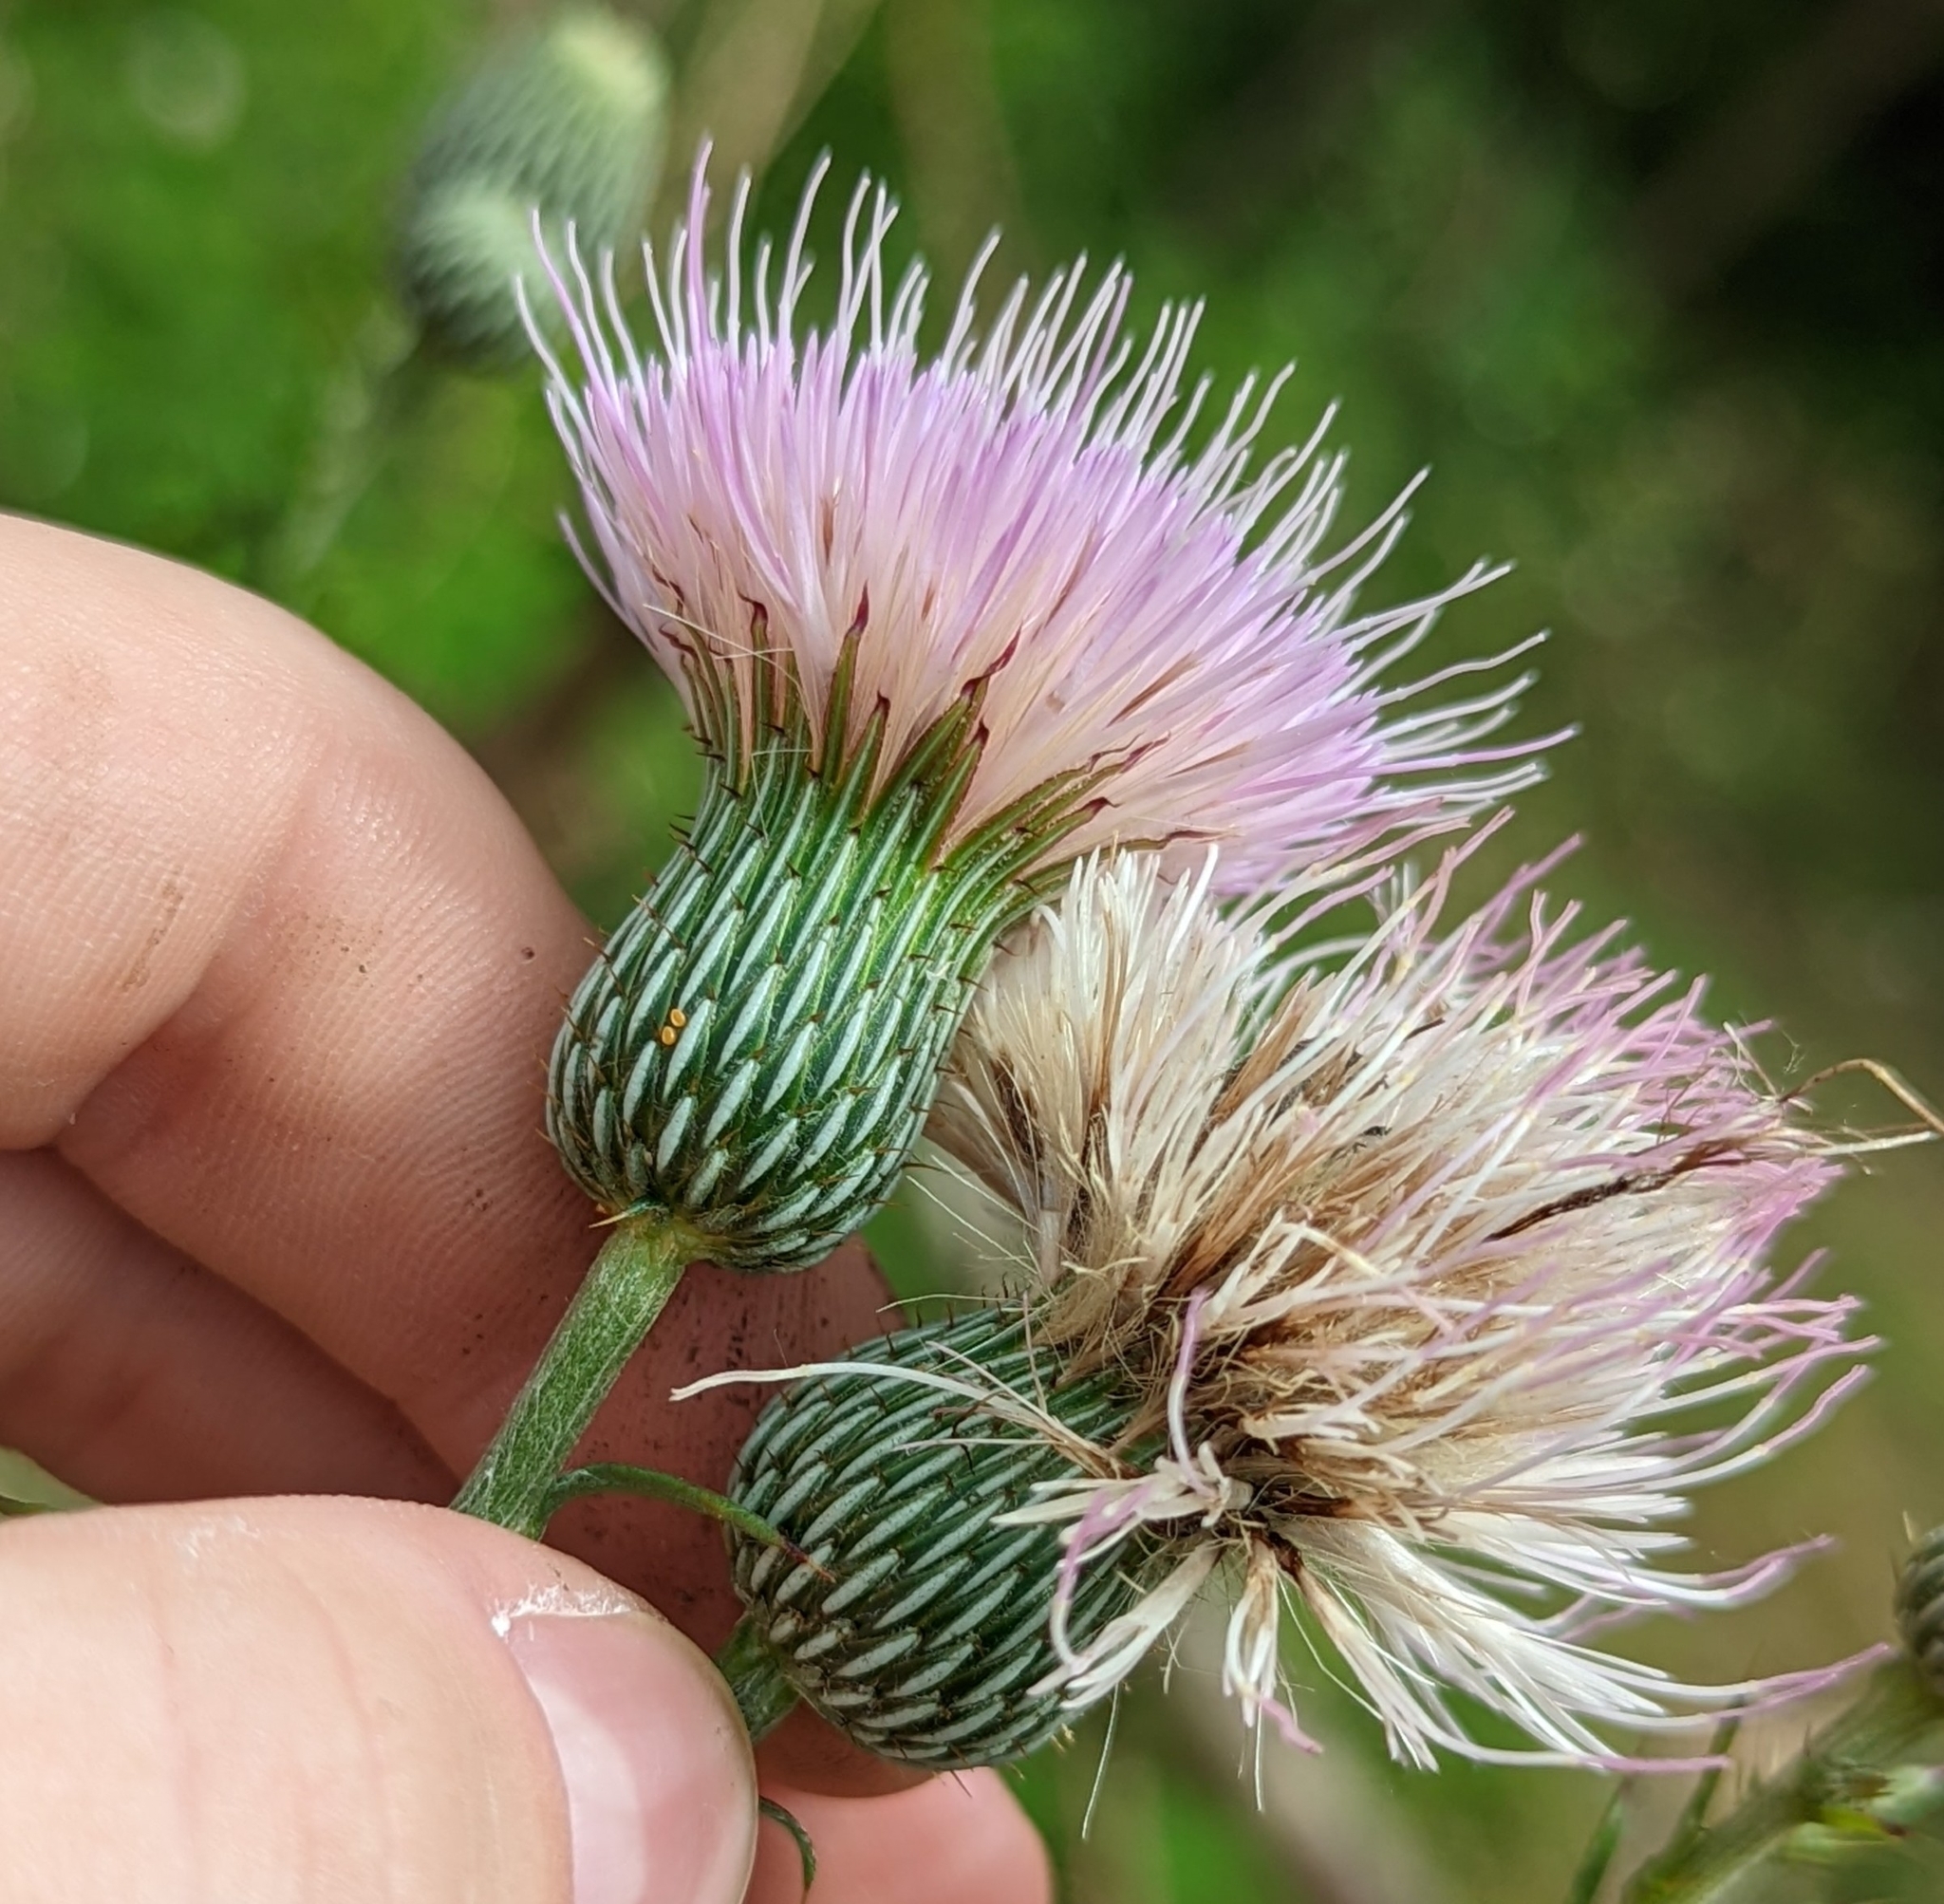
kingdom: Plantae
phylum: Tracheophyta
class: Magnoliopsida
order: Asterales
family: Asteraceae
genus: Cirsium
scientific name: Cirsium nuttalii
